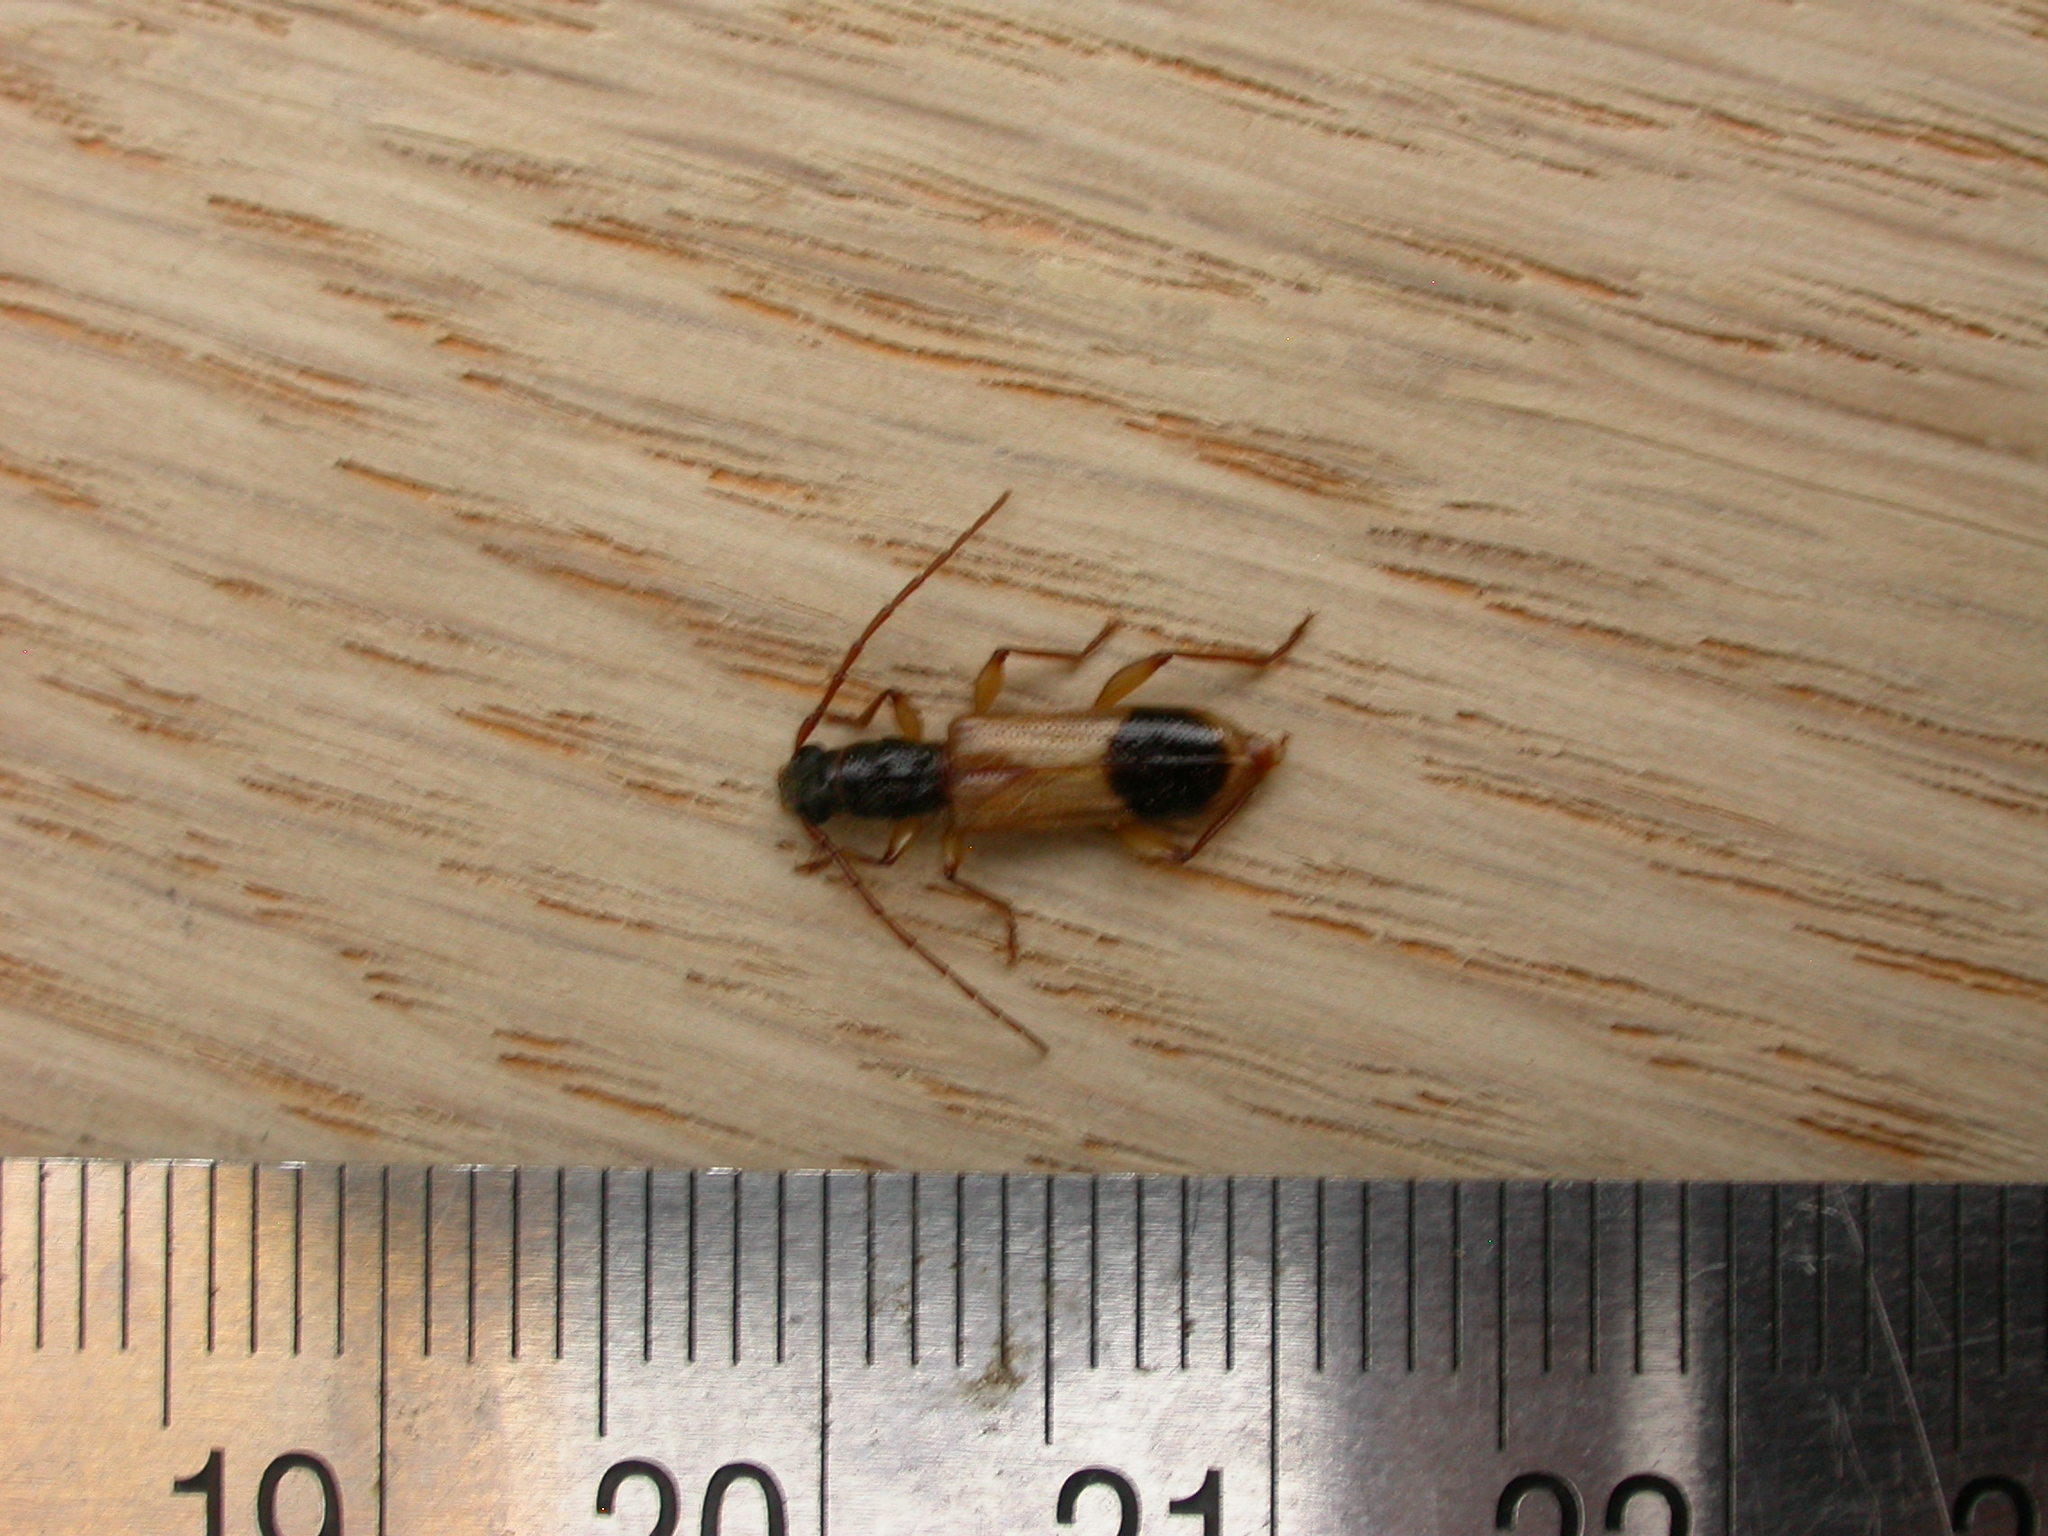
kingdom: Animalia
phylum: Arthropoda
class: Insecta
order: Coleoptera
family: Cerambycidae
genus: Atesta
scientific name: Atesta tripartita
